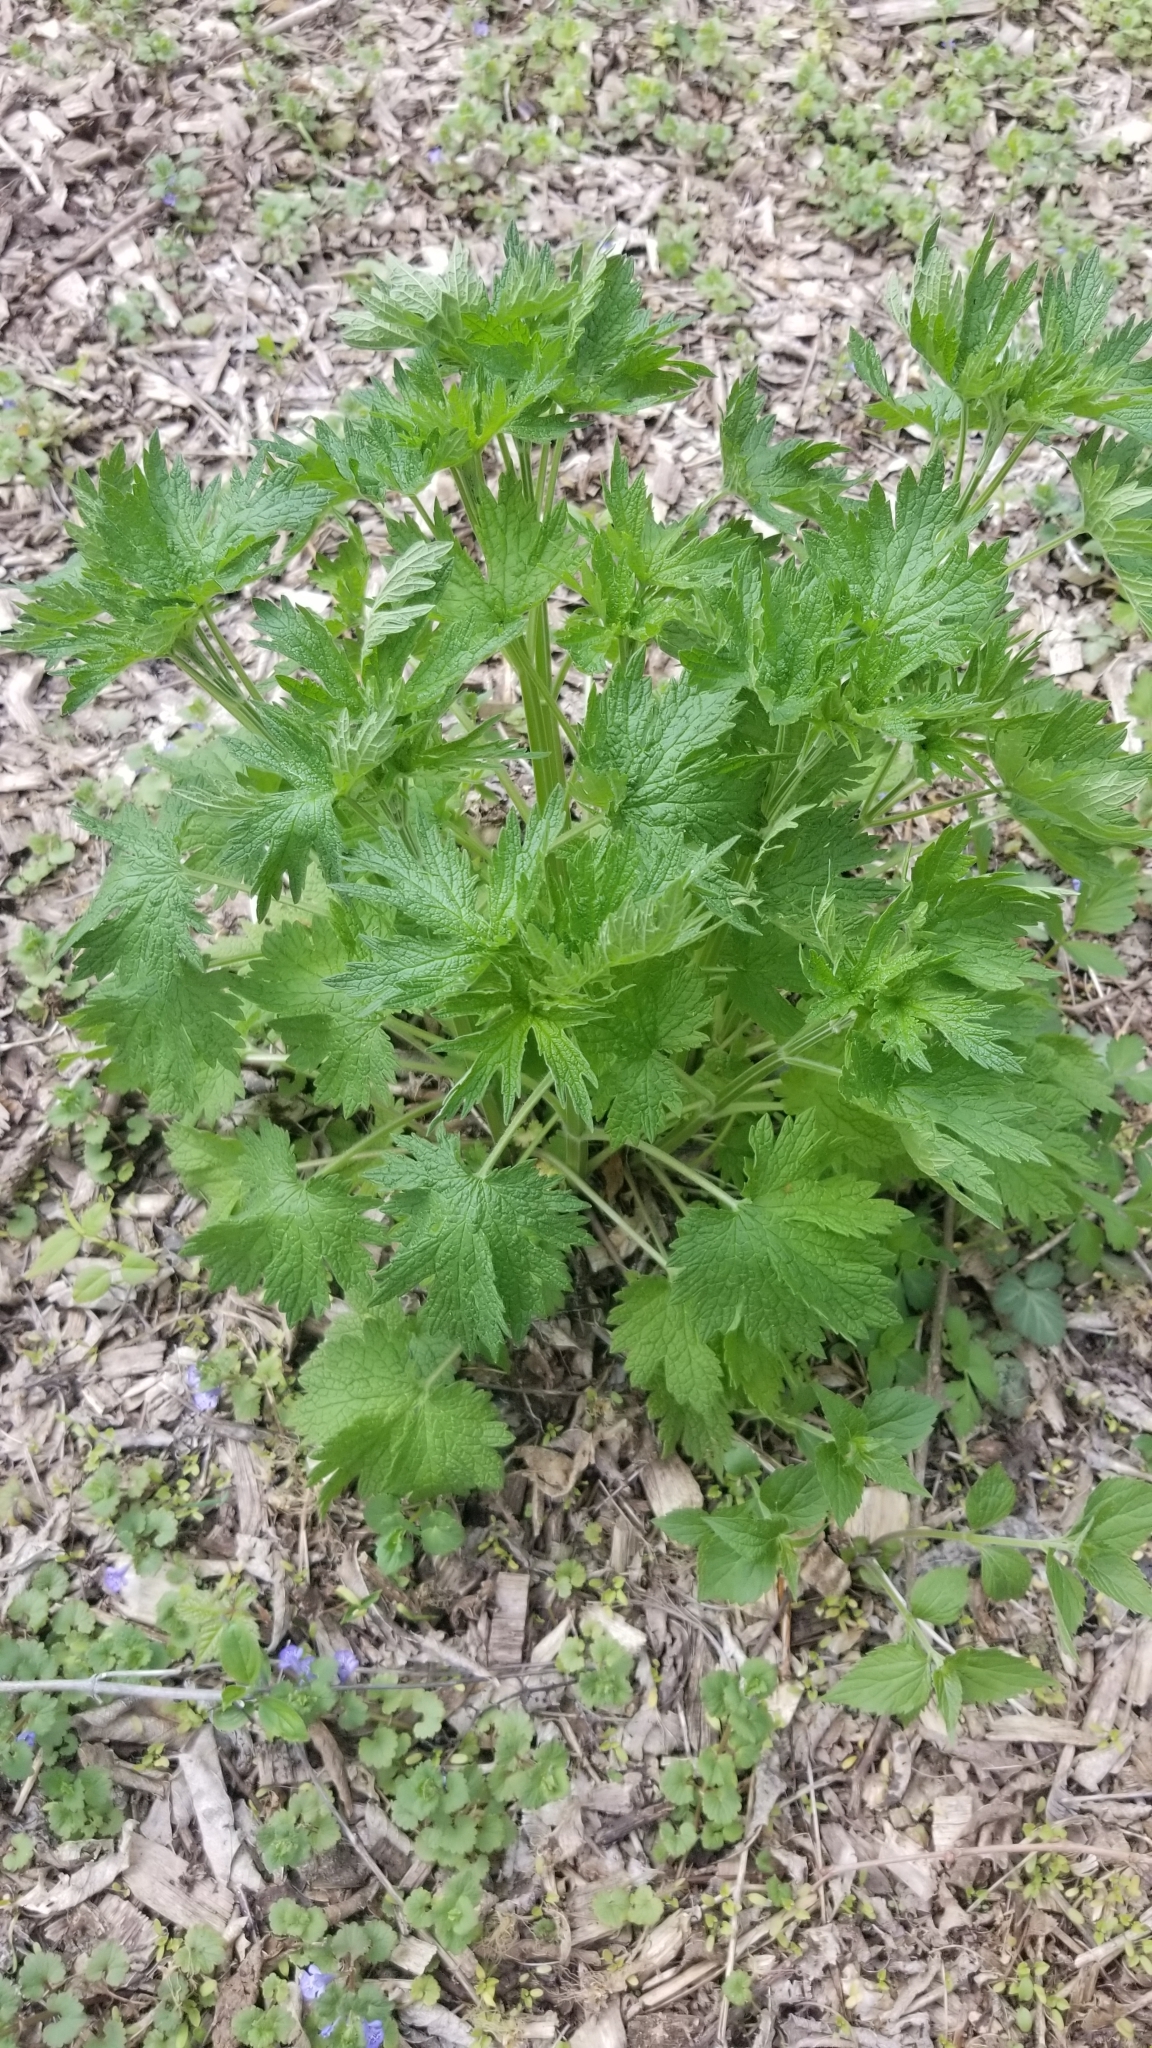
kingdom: Plantae
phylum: Tracheophyta
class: Magnoliopsida
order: Lamiales
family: Lamiaceae
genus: Leonurus
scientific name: Leonurus cardiaca
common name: Motherwort
